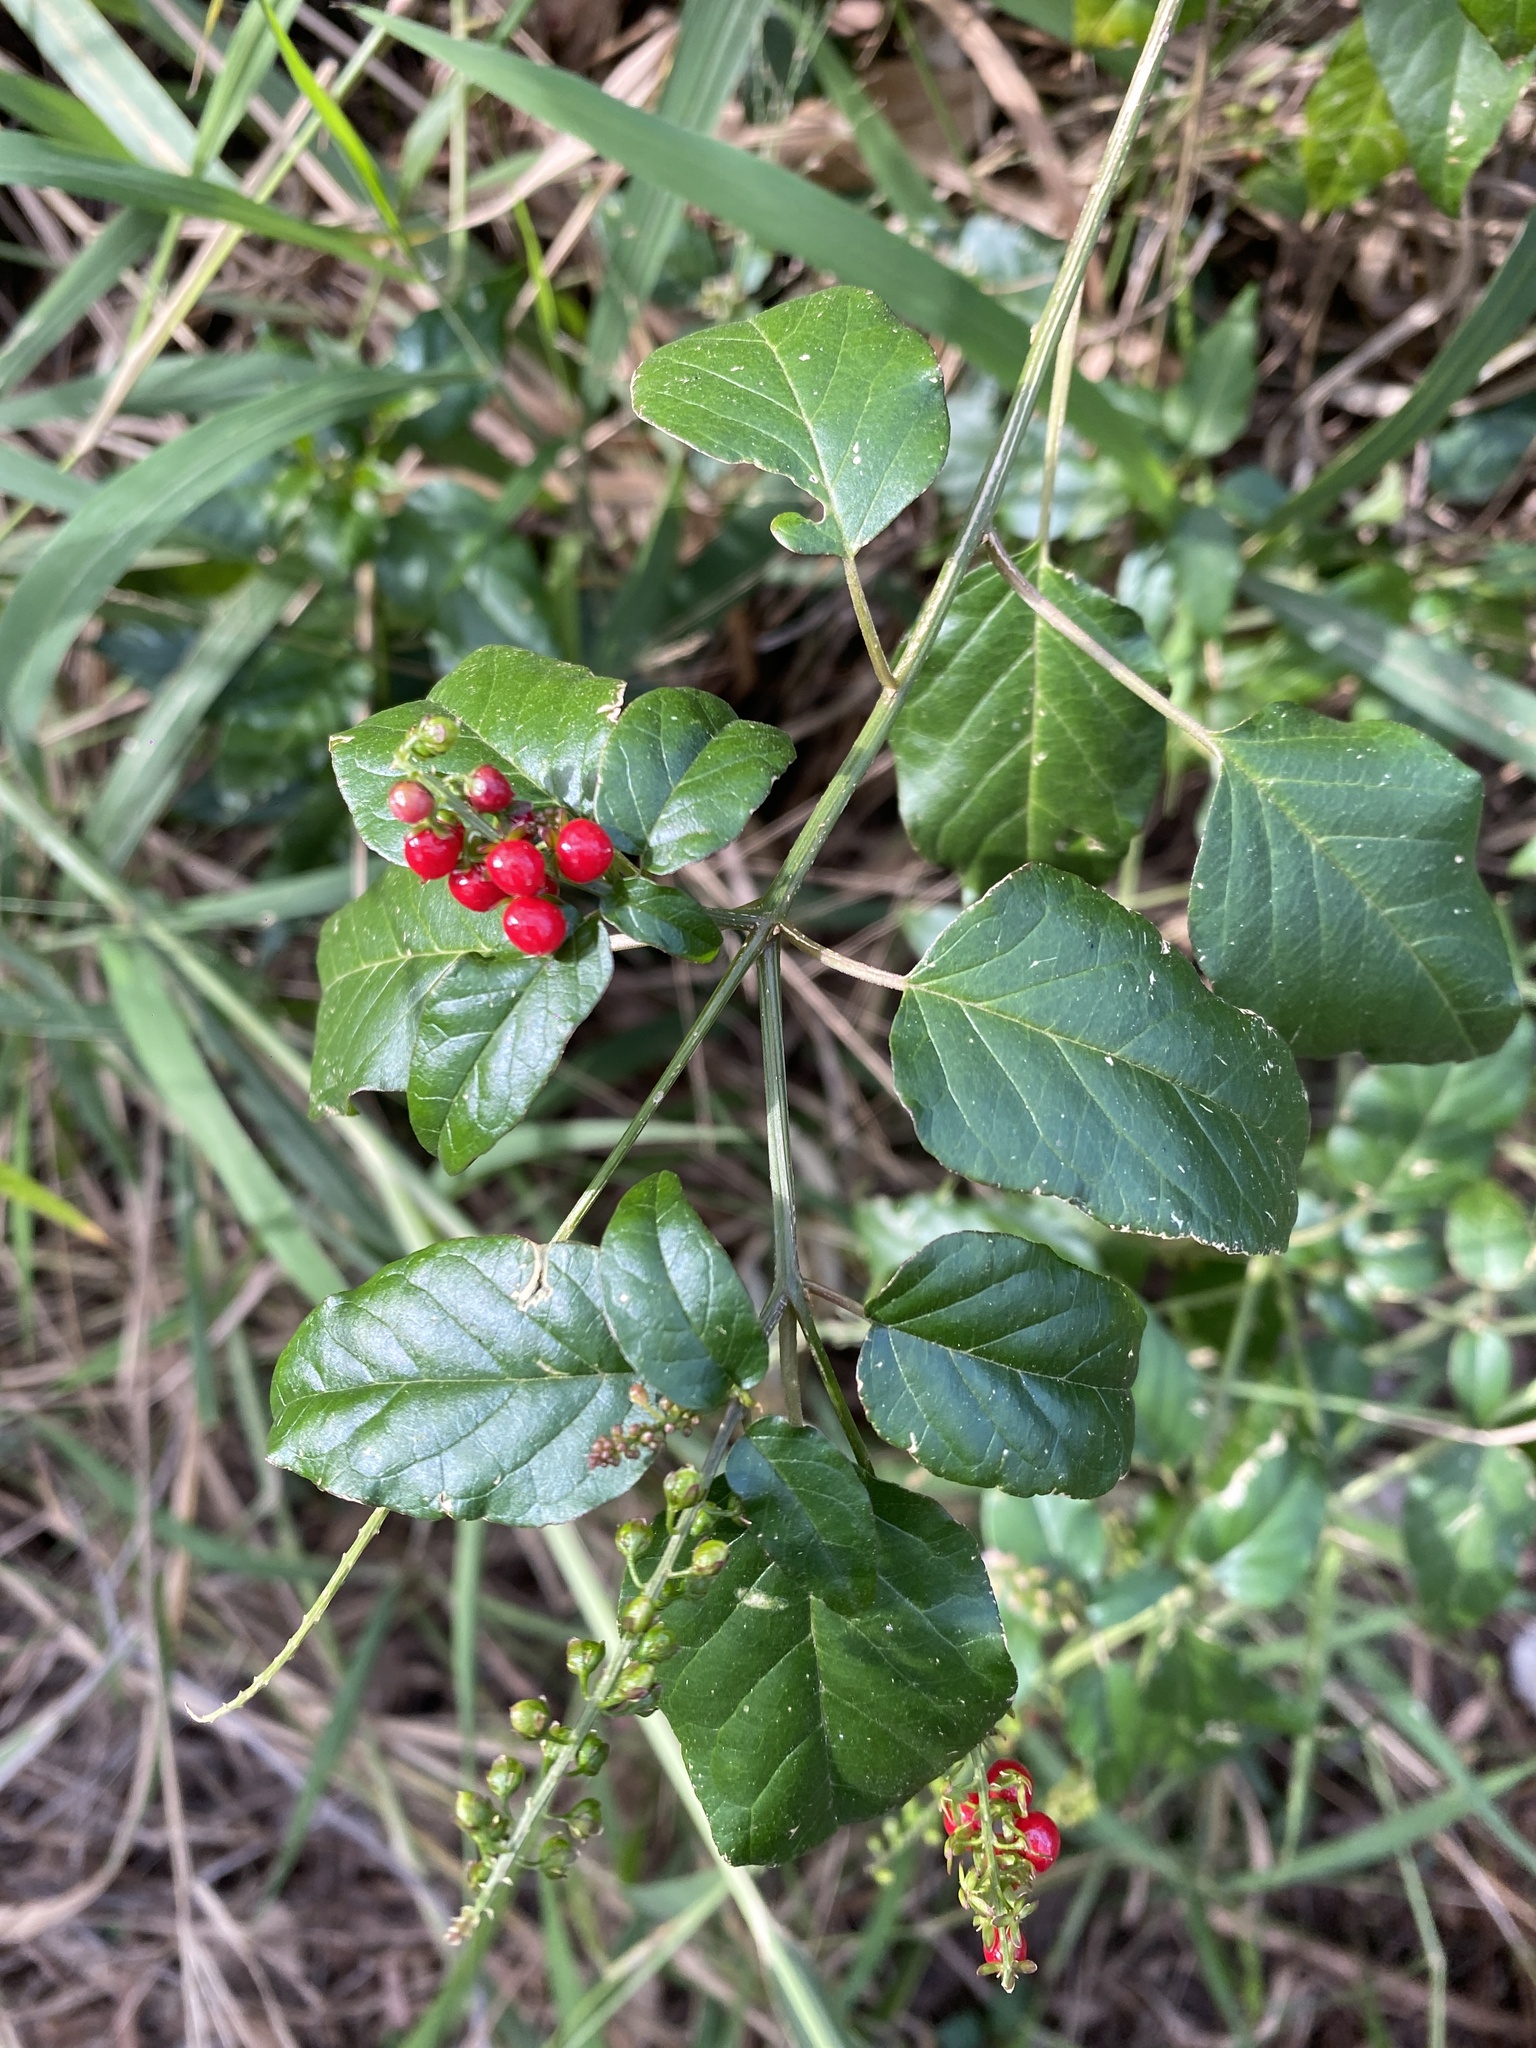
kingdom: Plantae
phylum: Tracheophyta
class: Magnoliopsida
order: Caryophyllales
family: Phytolaccaceae
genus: Rivina
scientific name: Rivina humilis
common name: Rougeplant
